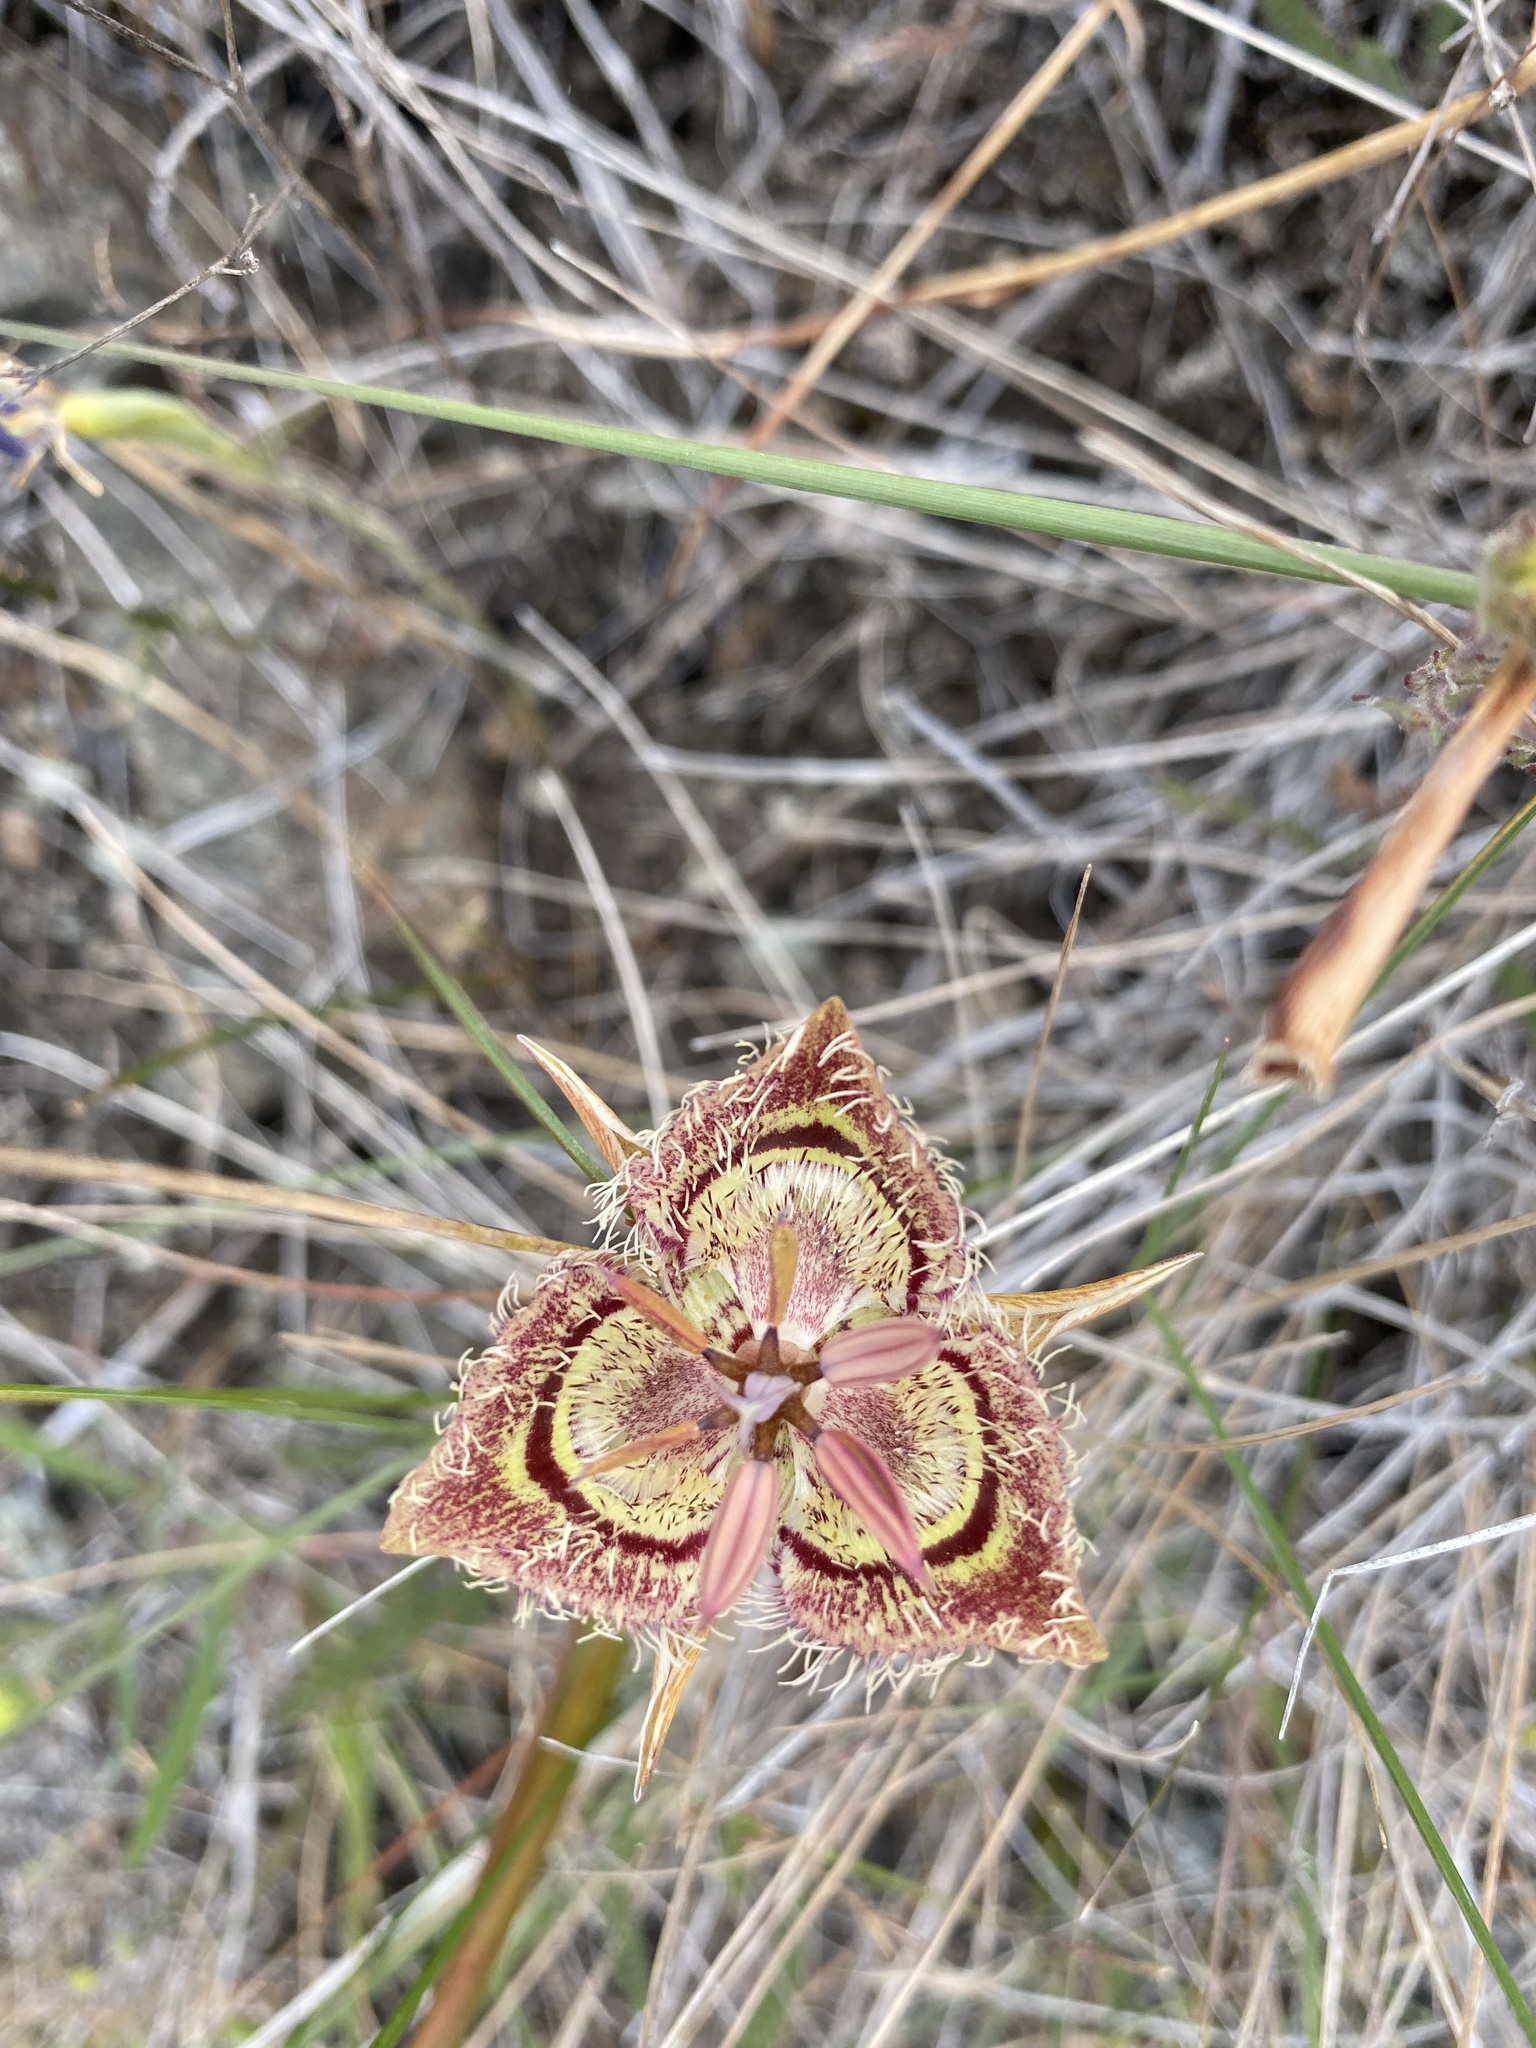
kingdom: Plantae
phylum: Tracheophyta
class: Liliopsida
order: Liliales
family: Liliaceae
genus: Calochortus
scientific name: Calochortus tiburonensis
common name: Tiburon mariposa-lily
